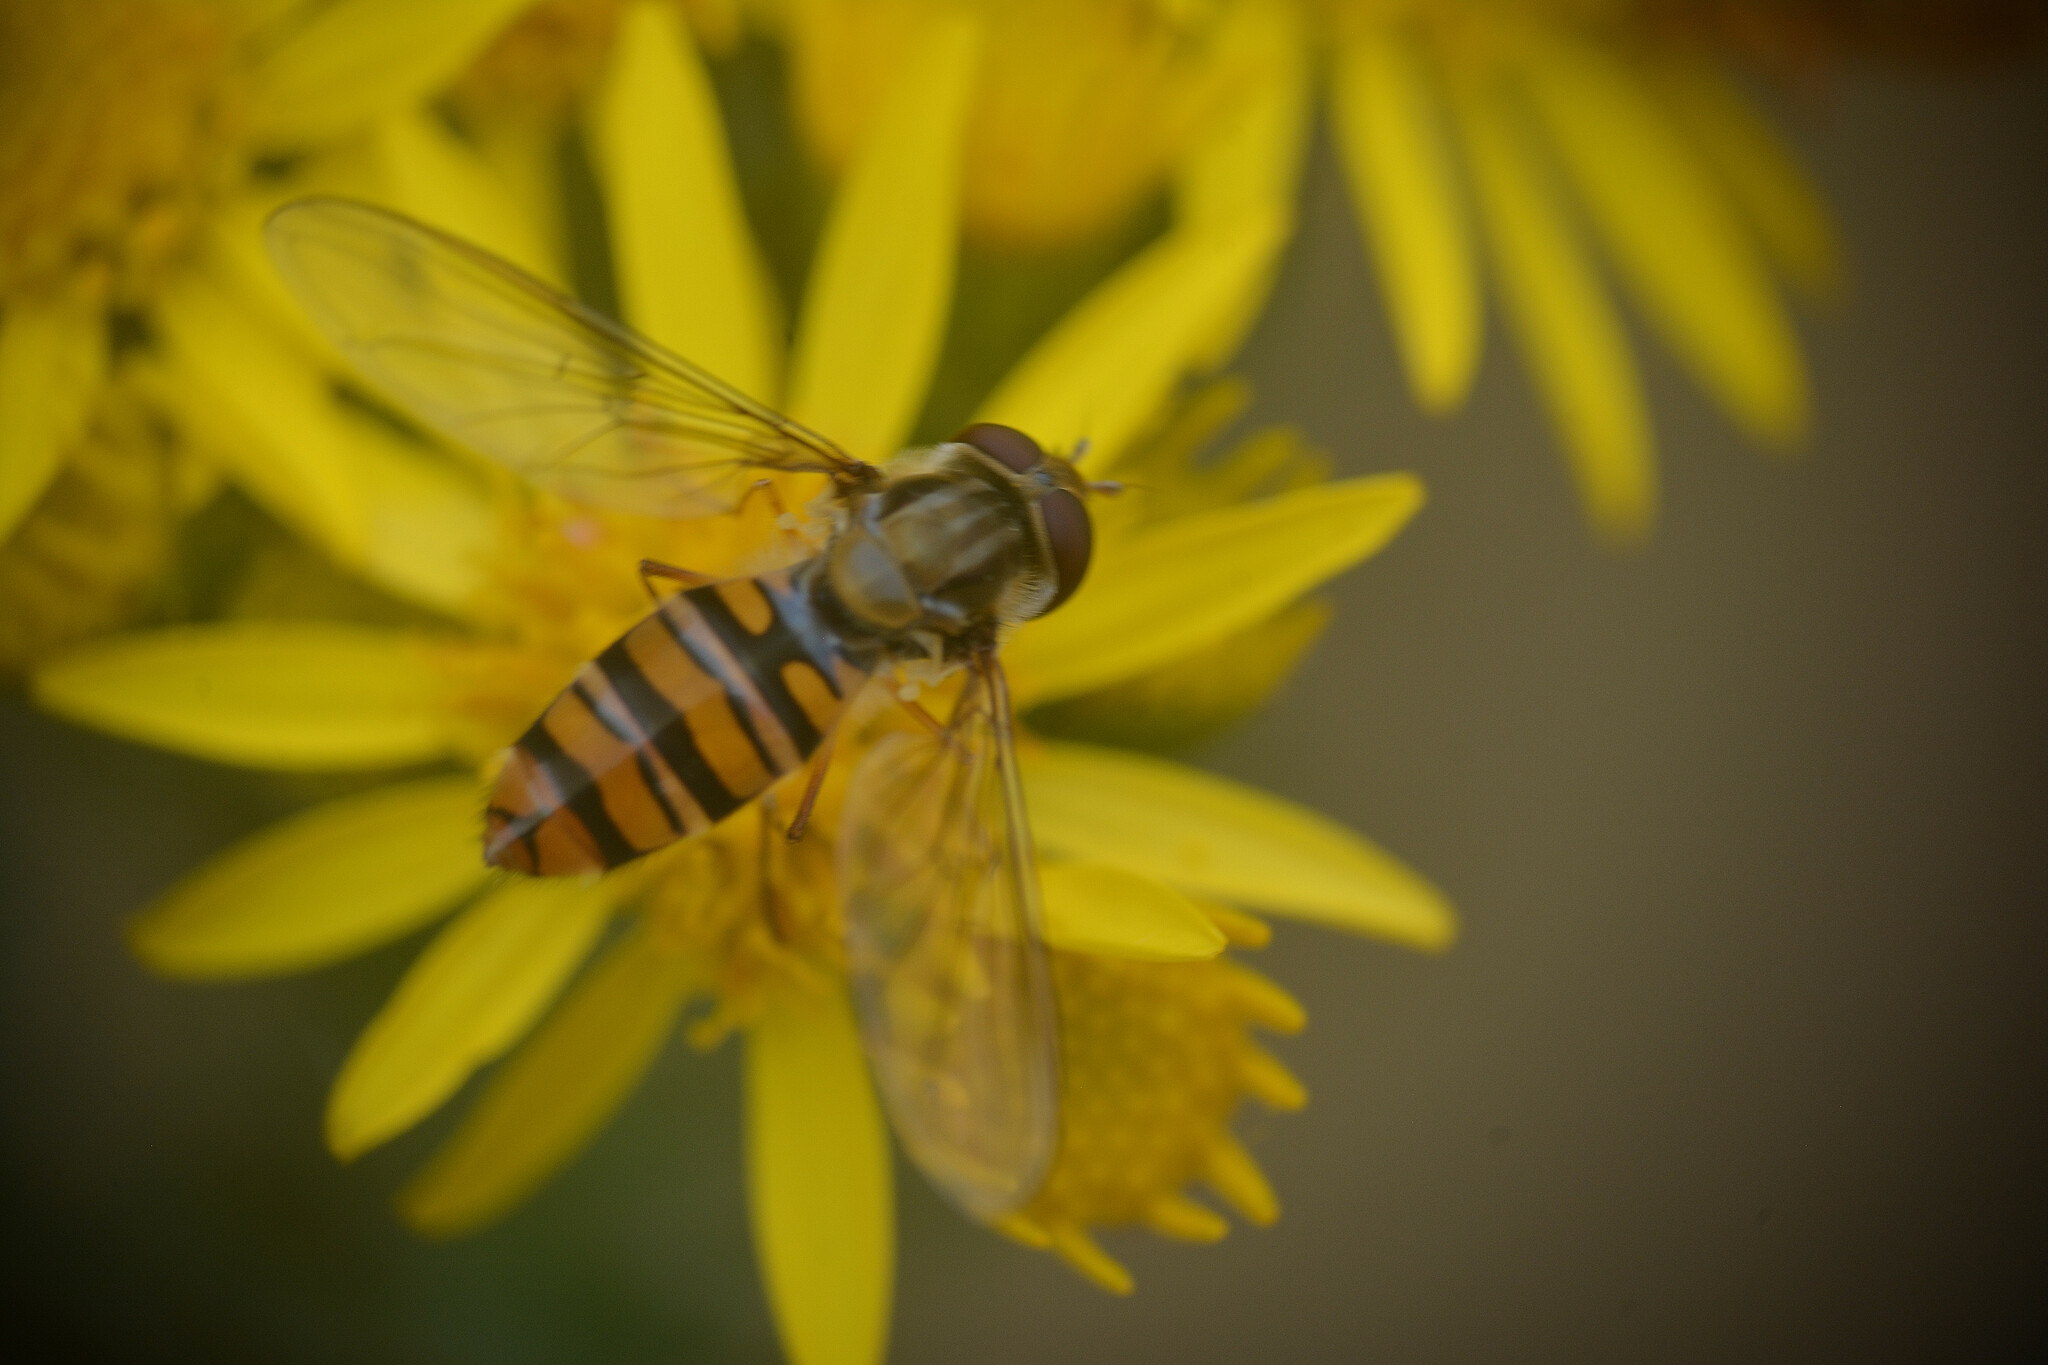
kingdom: Animalia
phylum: Arthropoda
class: Insecta
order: Diptera
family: Syrphidae
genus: Episyrphus
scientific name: Episyrphus balteatus
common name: Marmalade hoverfly
